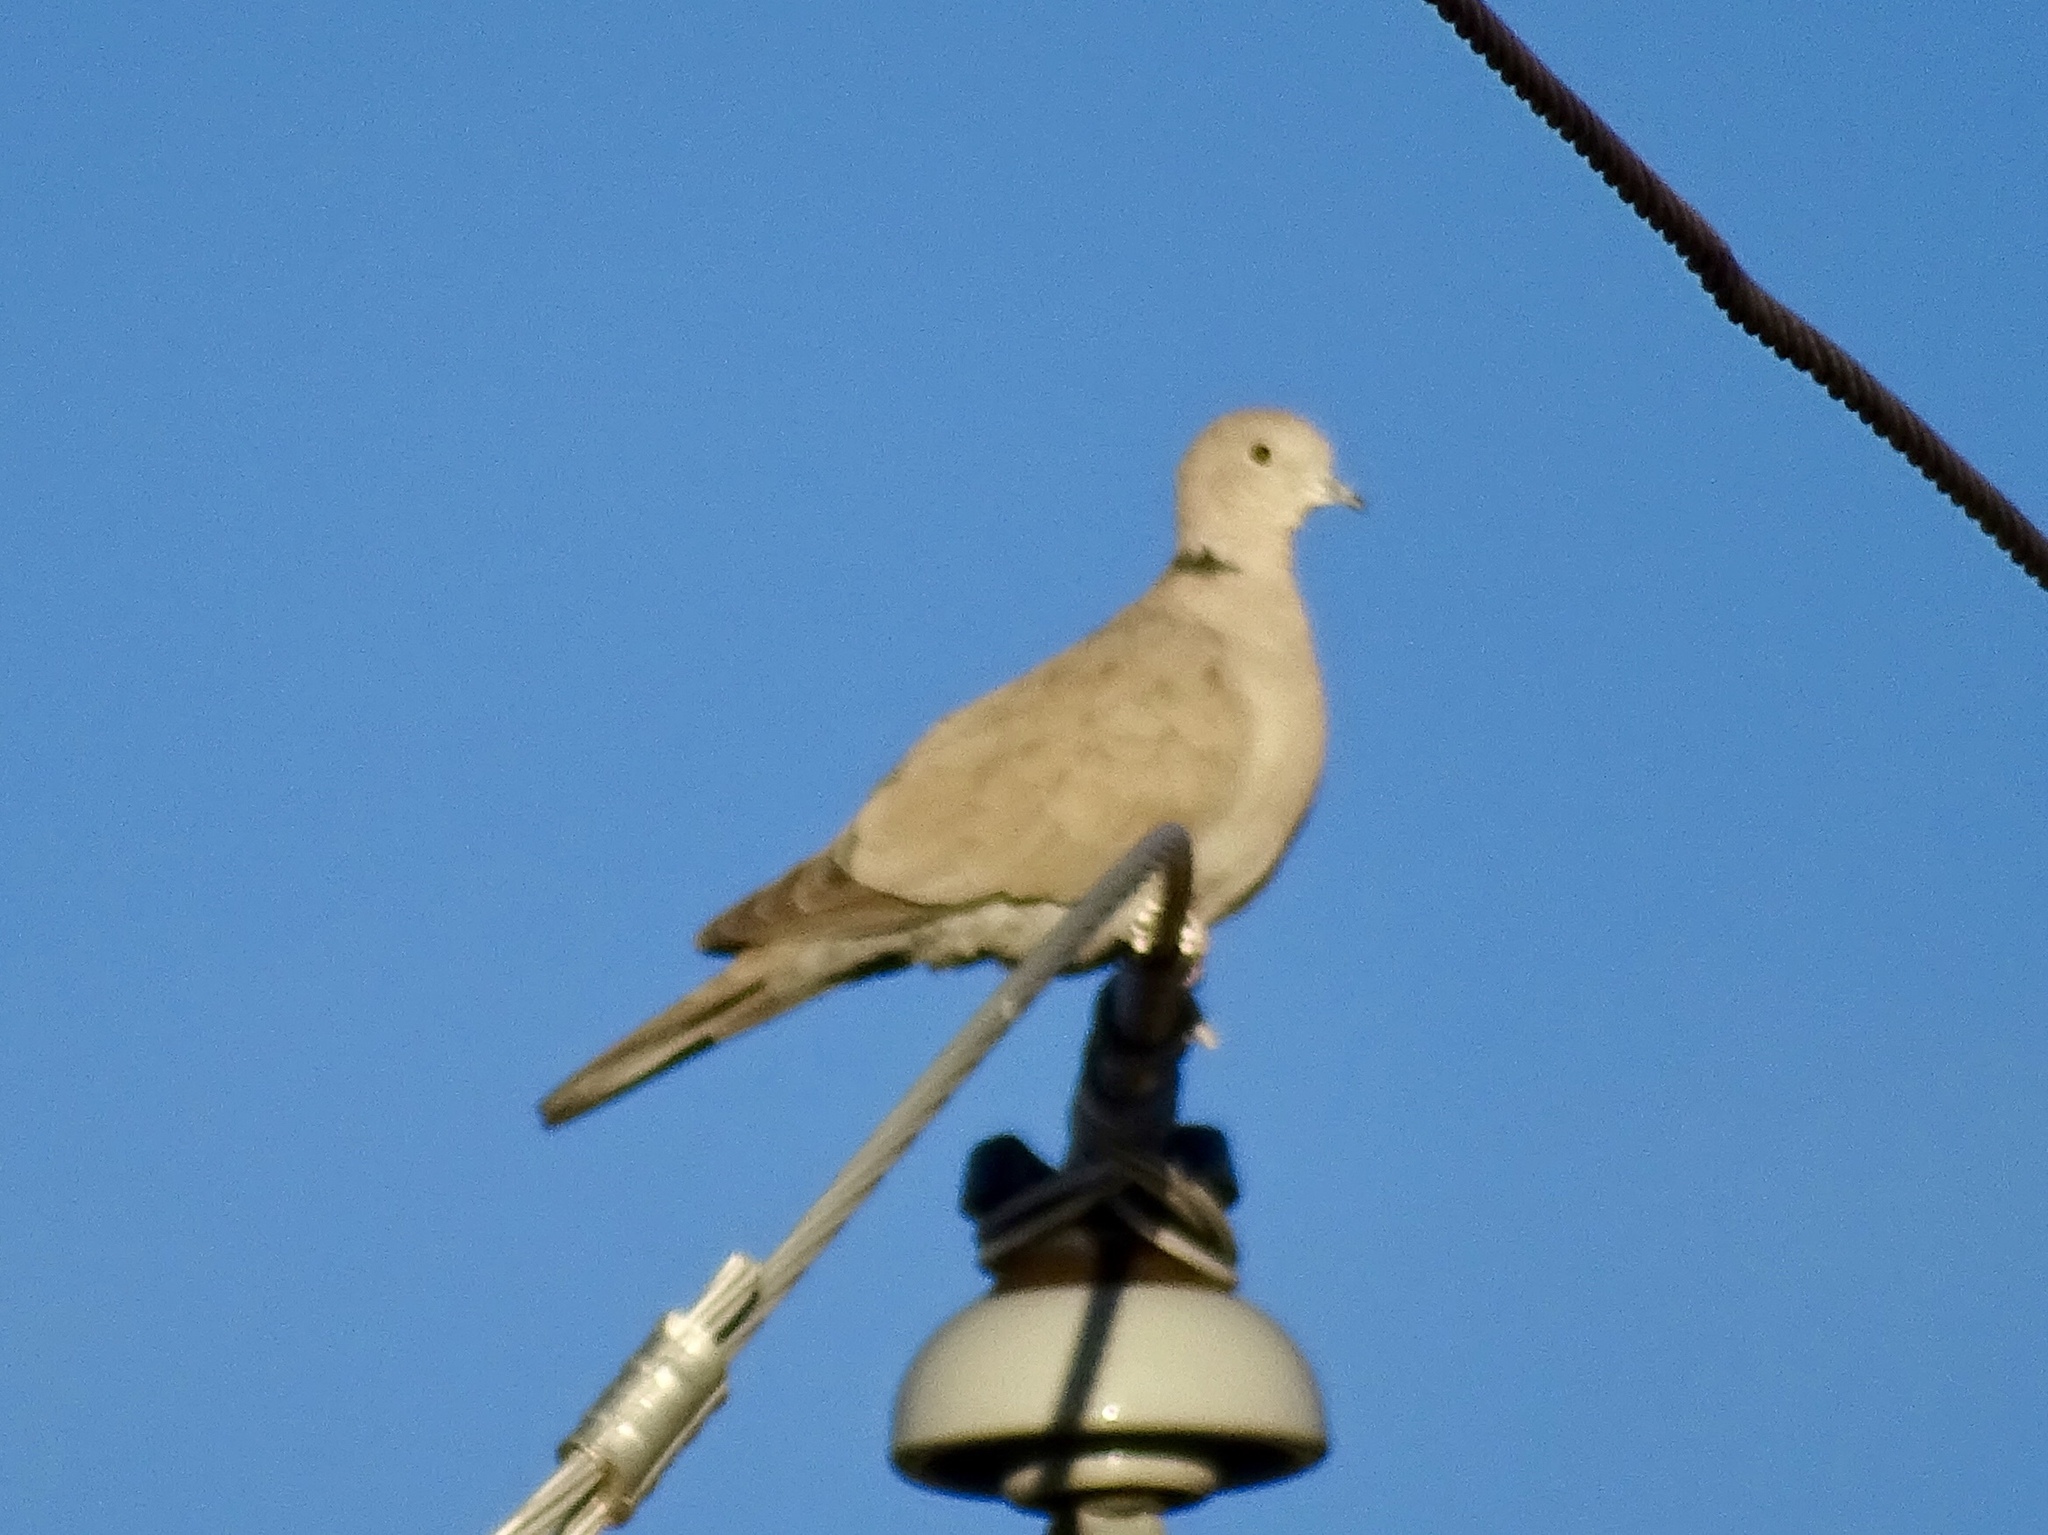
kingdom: Animalia
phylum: Chordata
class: Aves
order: Columbiformes
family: Columbidae
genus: Streptopelia
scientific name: Streptopelia decaocto
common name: Eurasian collared dove
